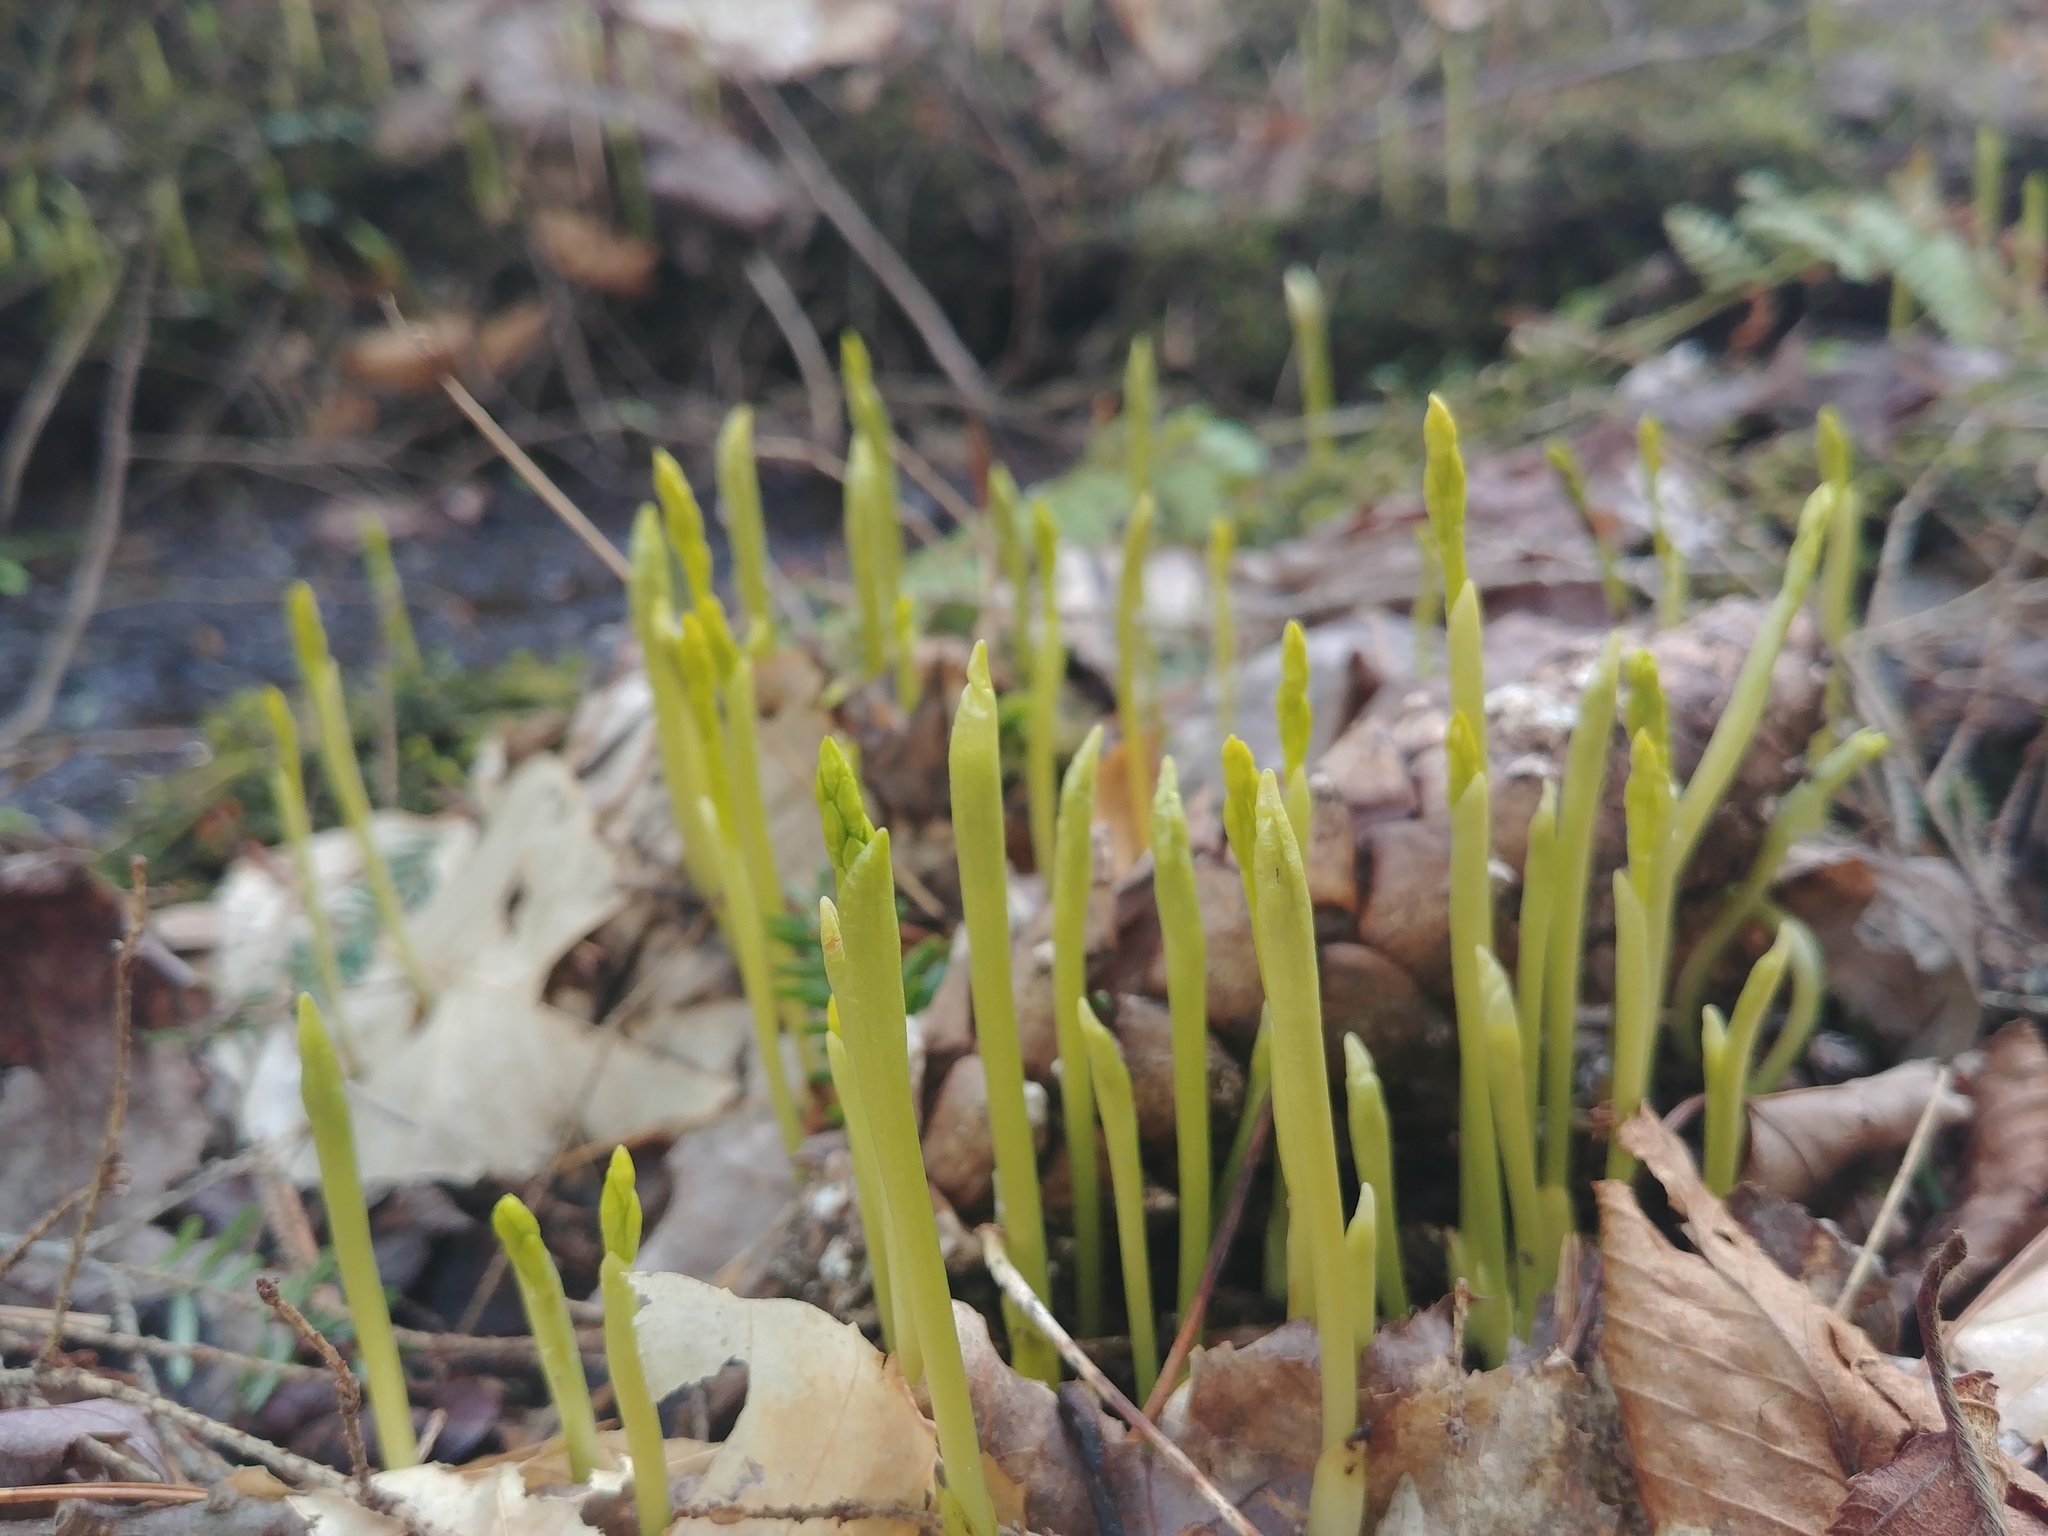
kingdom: Plantae
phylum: Tracheophyta
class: Liliopsida
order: Asparagales
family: Orchidaceae
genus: Corallorhiza
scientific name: Corallorhiza trifida
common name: Yellow coralroot
